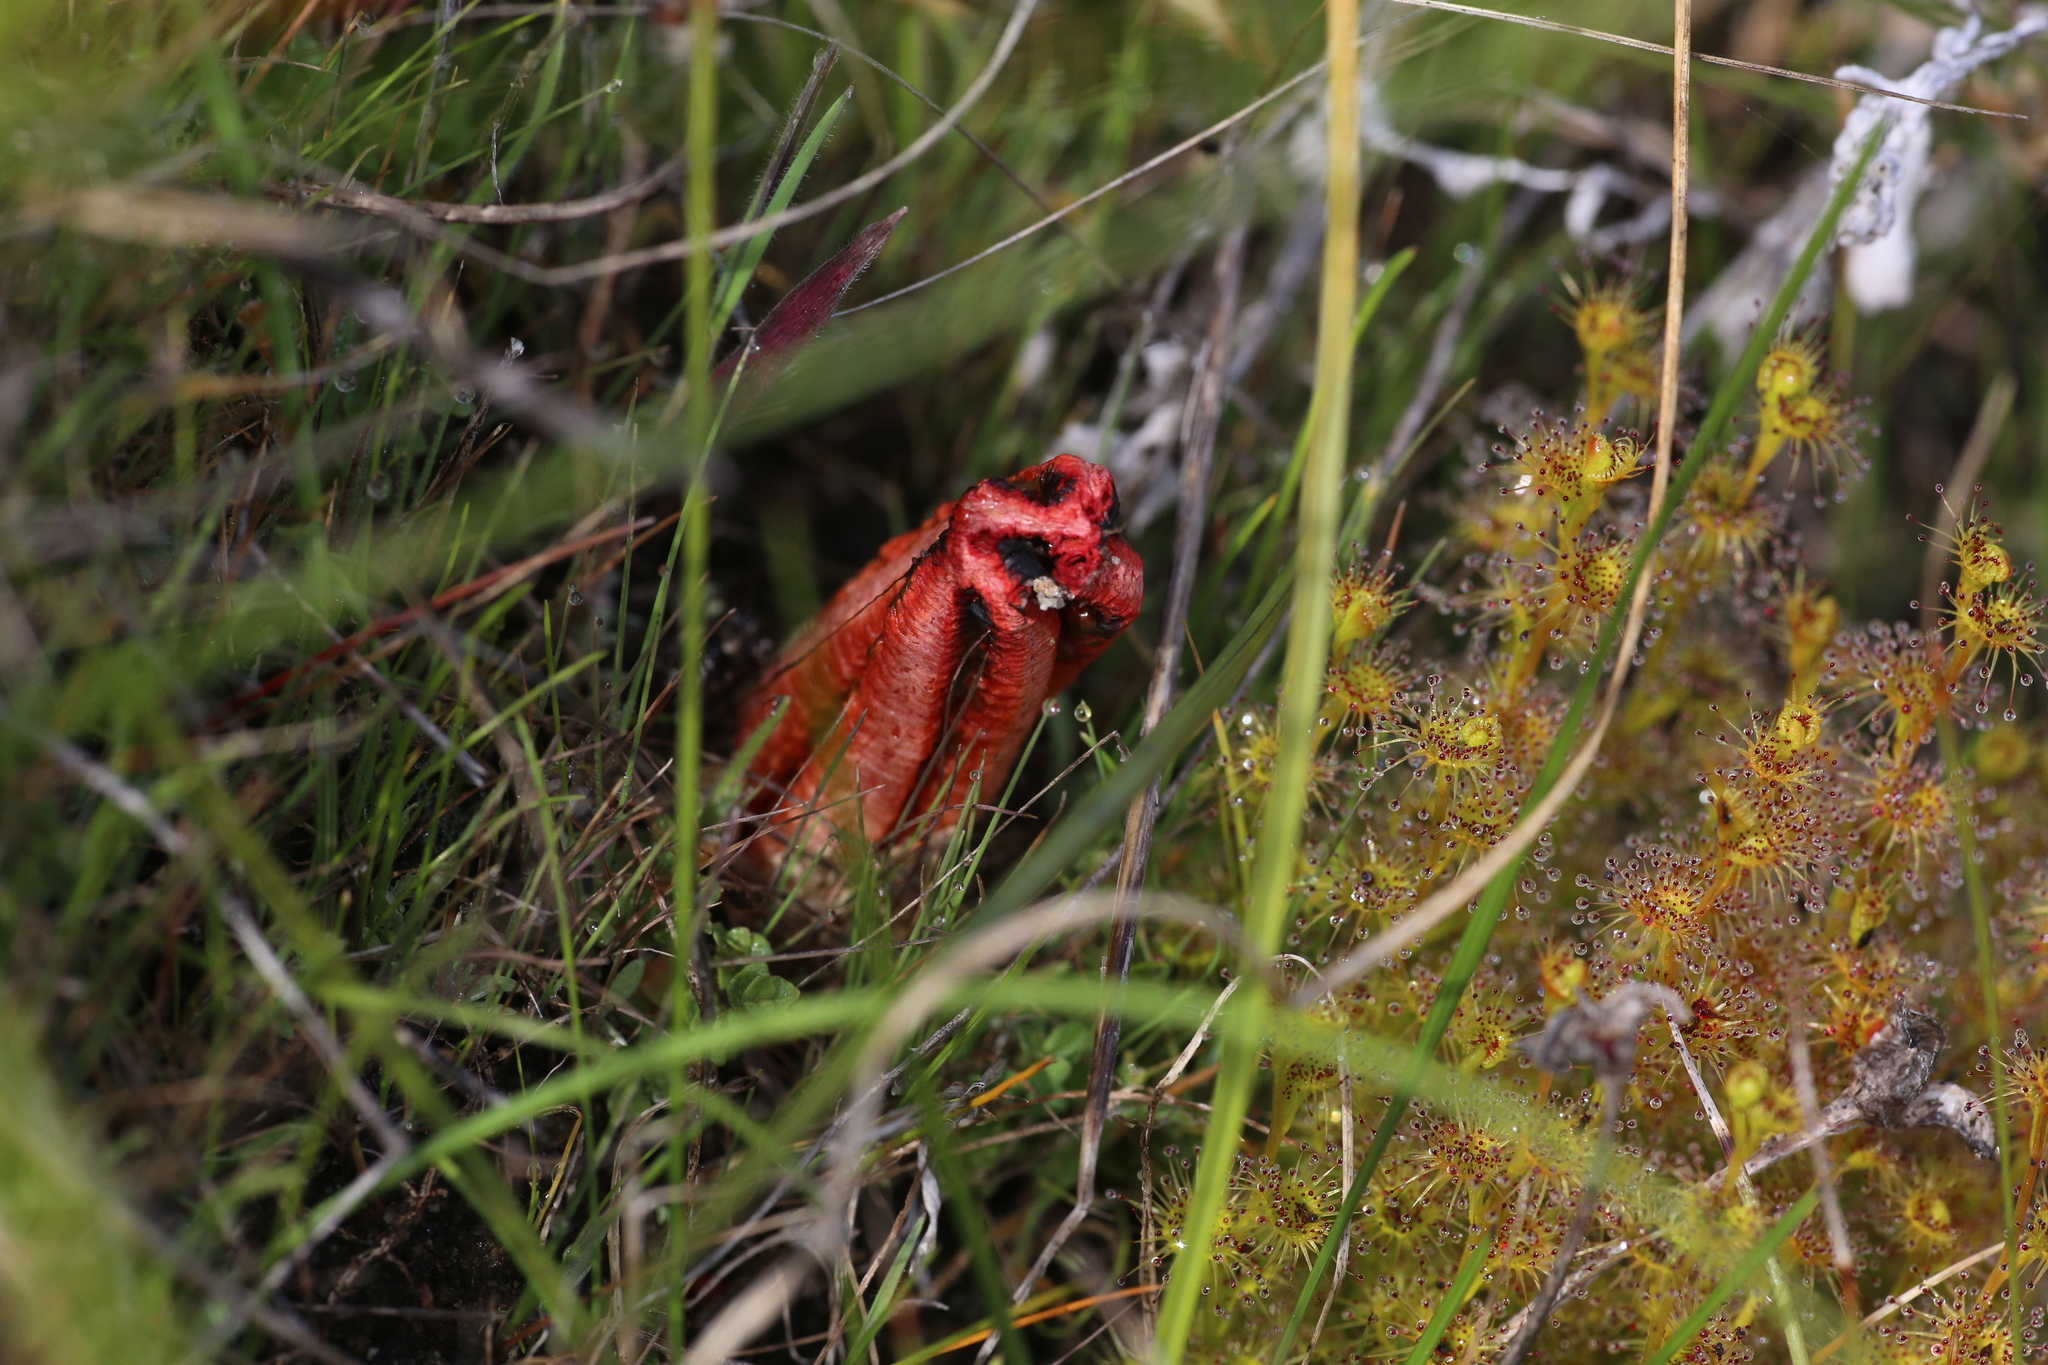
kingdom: Fungi
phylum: Basidiomycota
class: Agaricomycetes
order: Phallales
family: Phallaceae
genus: Colus
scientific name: Colus pusillus
